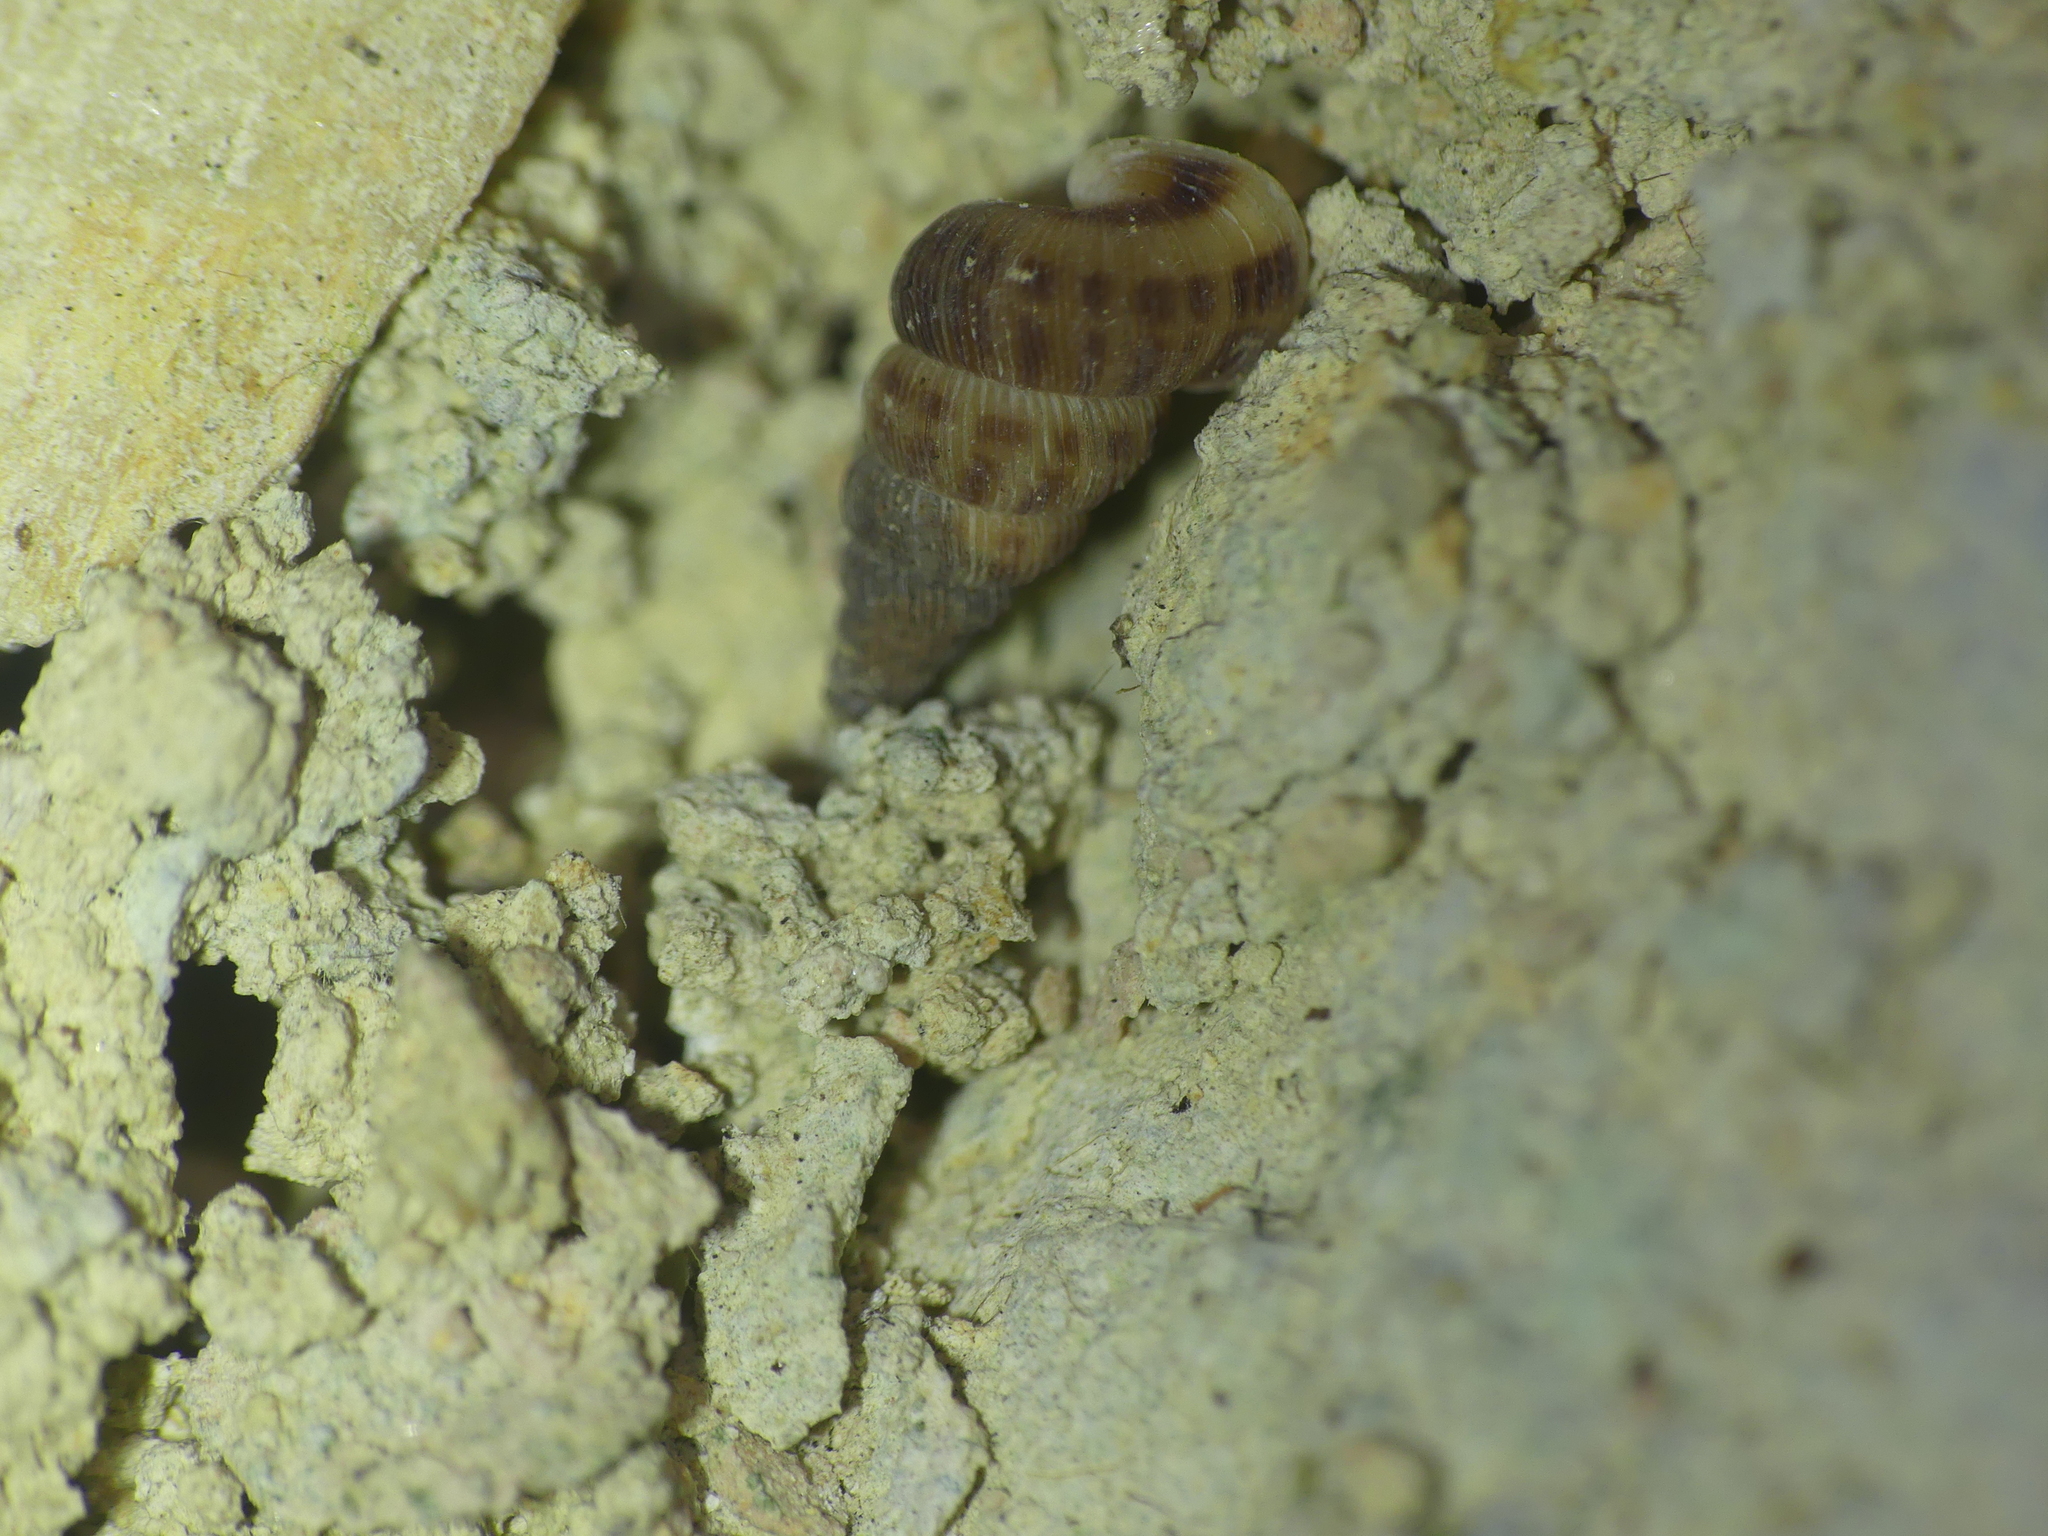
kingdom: Animalia
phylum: Mollusca
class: Gastropoda
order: Architaenioglossa
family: Cochlostomatidae
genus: Cochlostoma
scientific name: Cochlostoma septemspirale
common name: Seven-whorl snail
